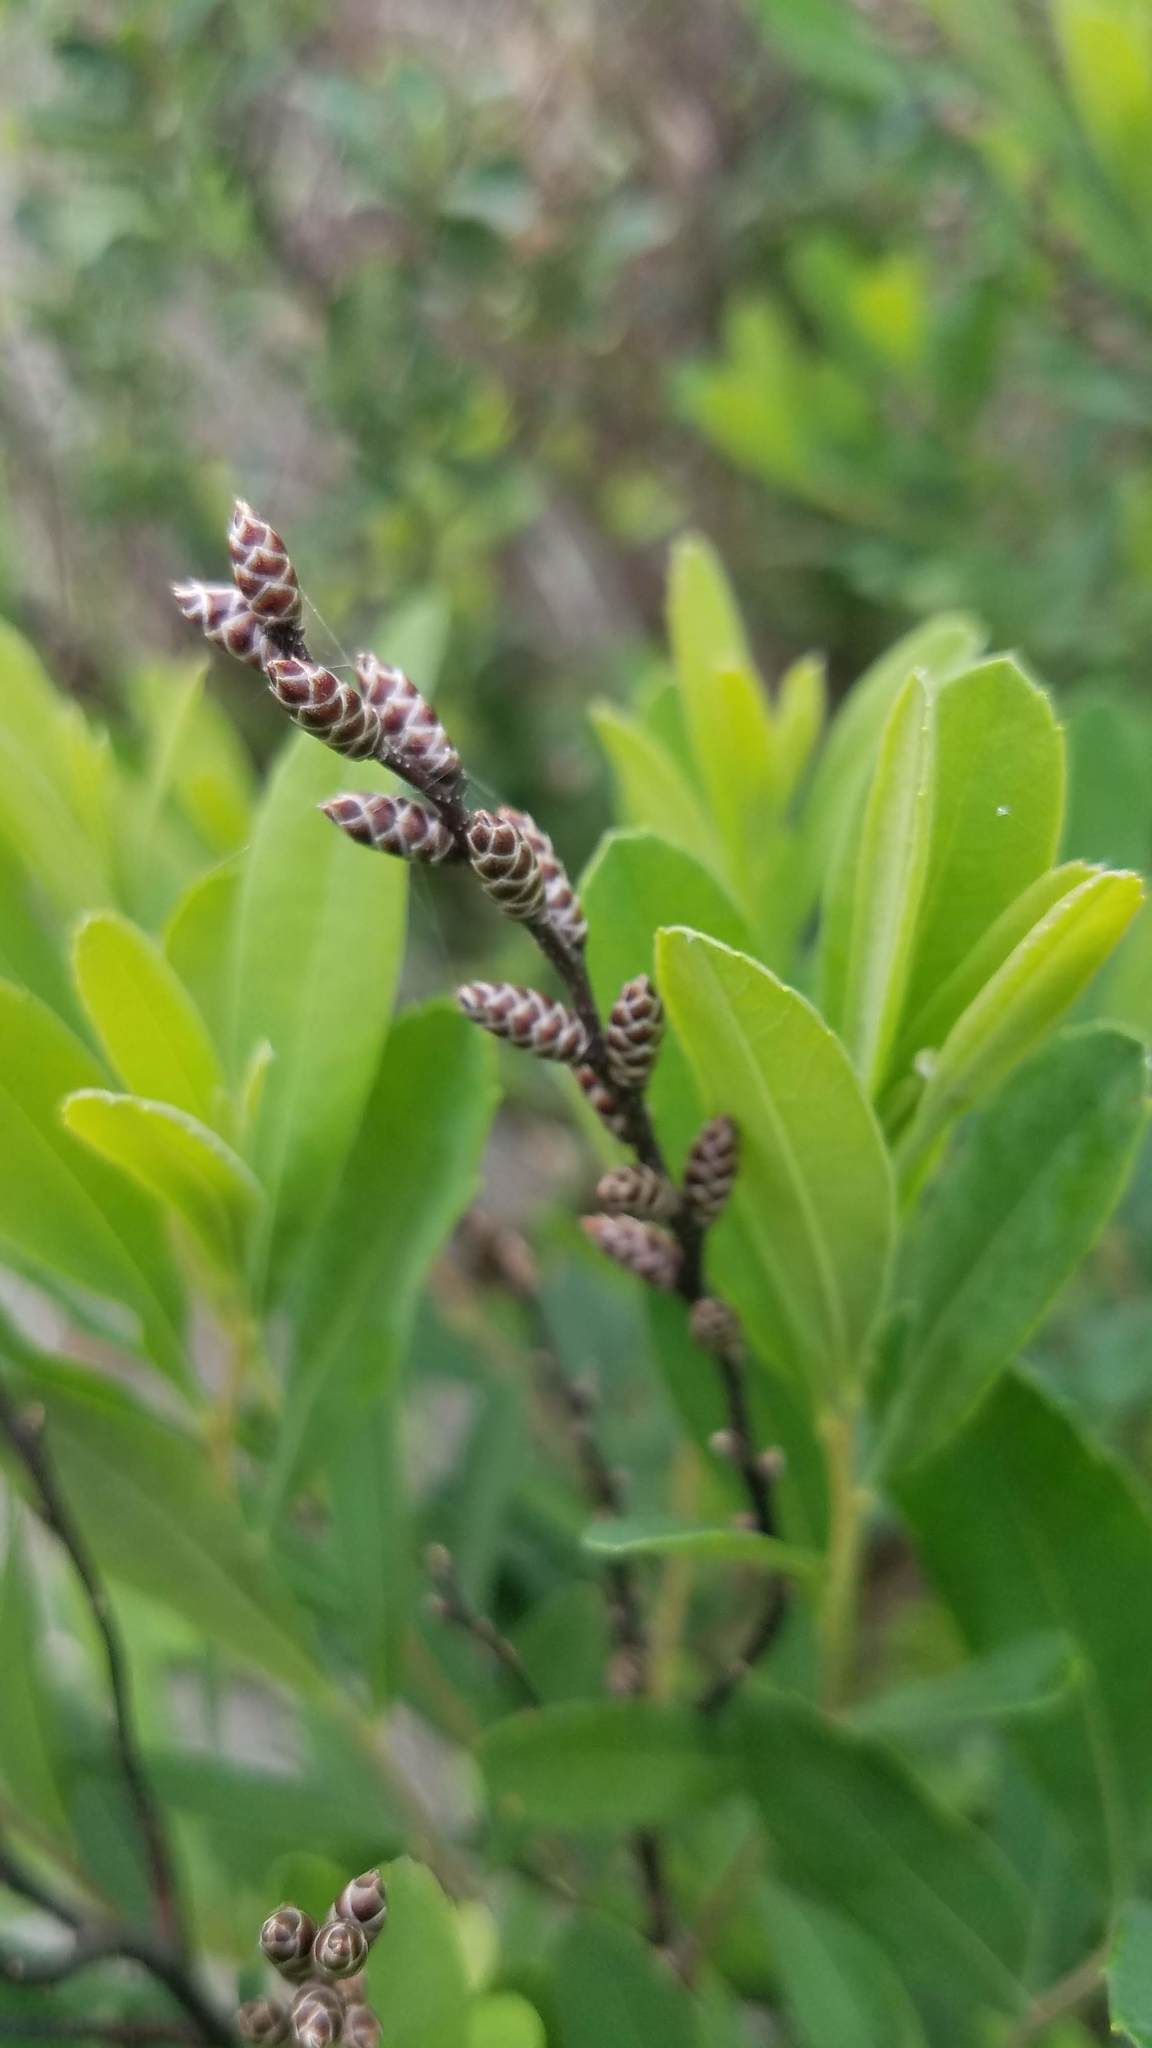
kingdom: Plantae
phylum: Tracheophyta
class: Magnoliopsida
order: Fagales
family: Myricaceae
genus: Myrica
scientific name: Myrica gale
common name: Sweet gale
